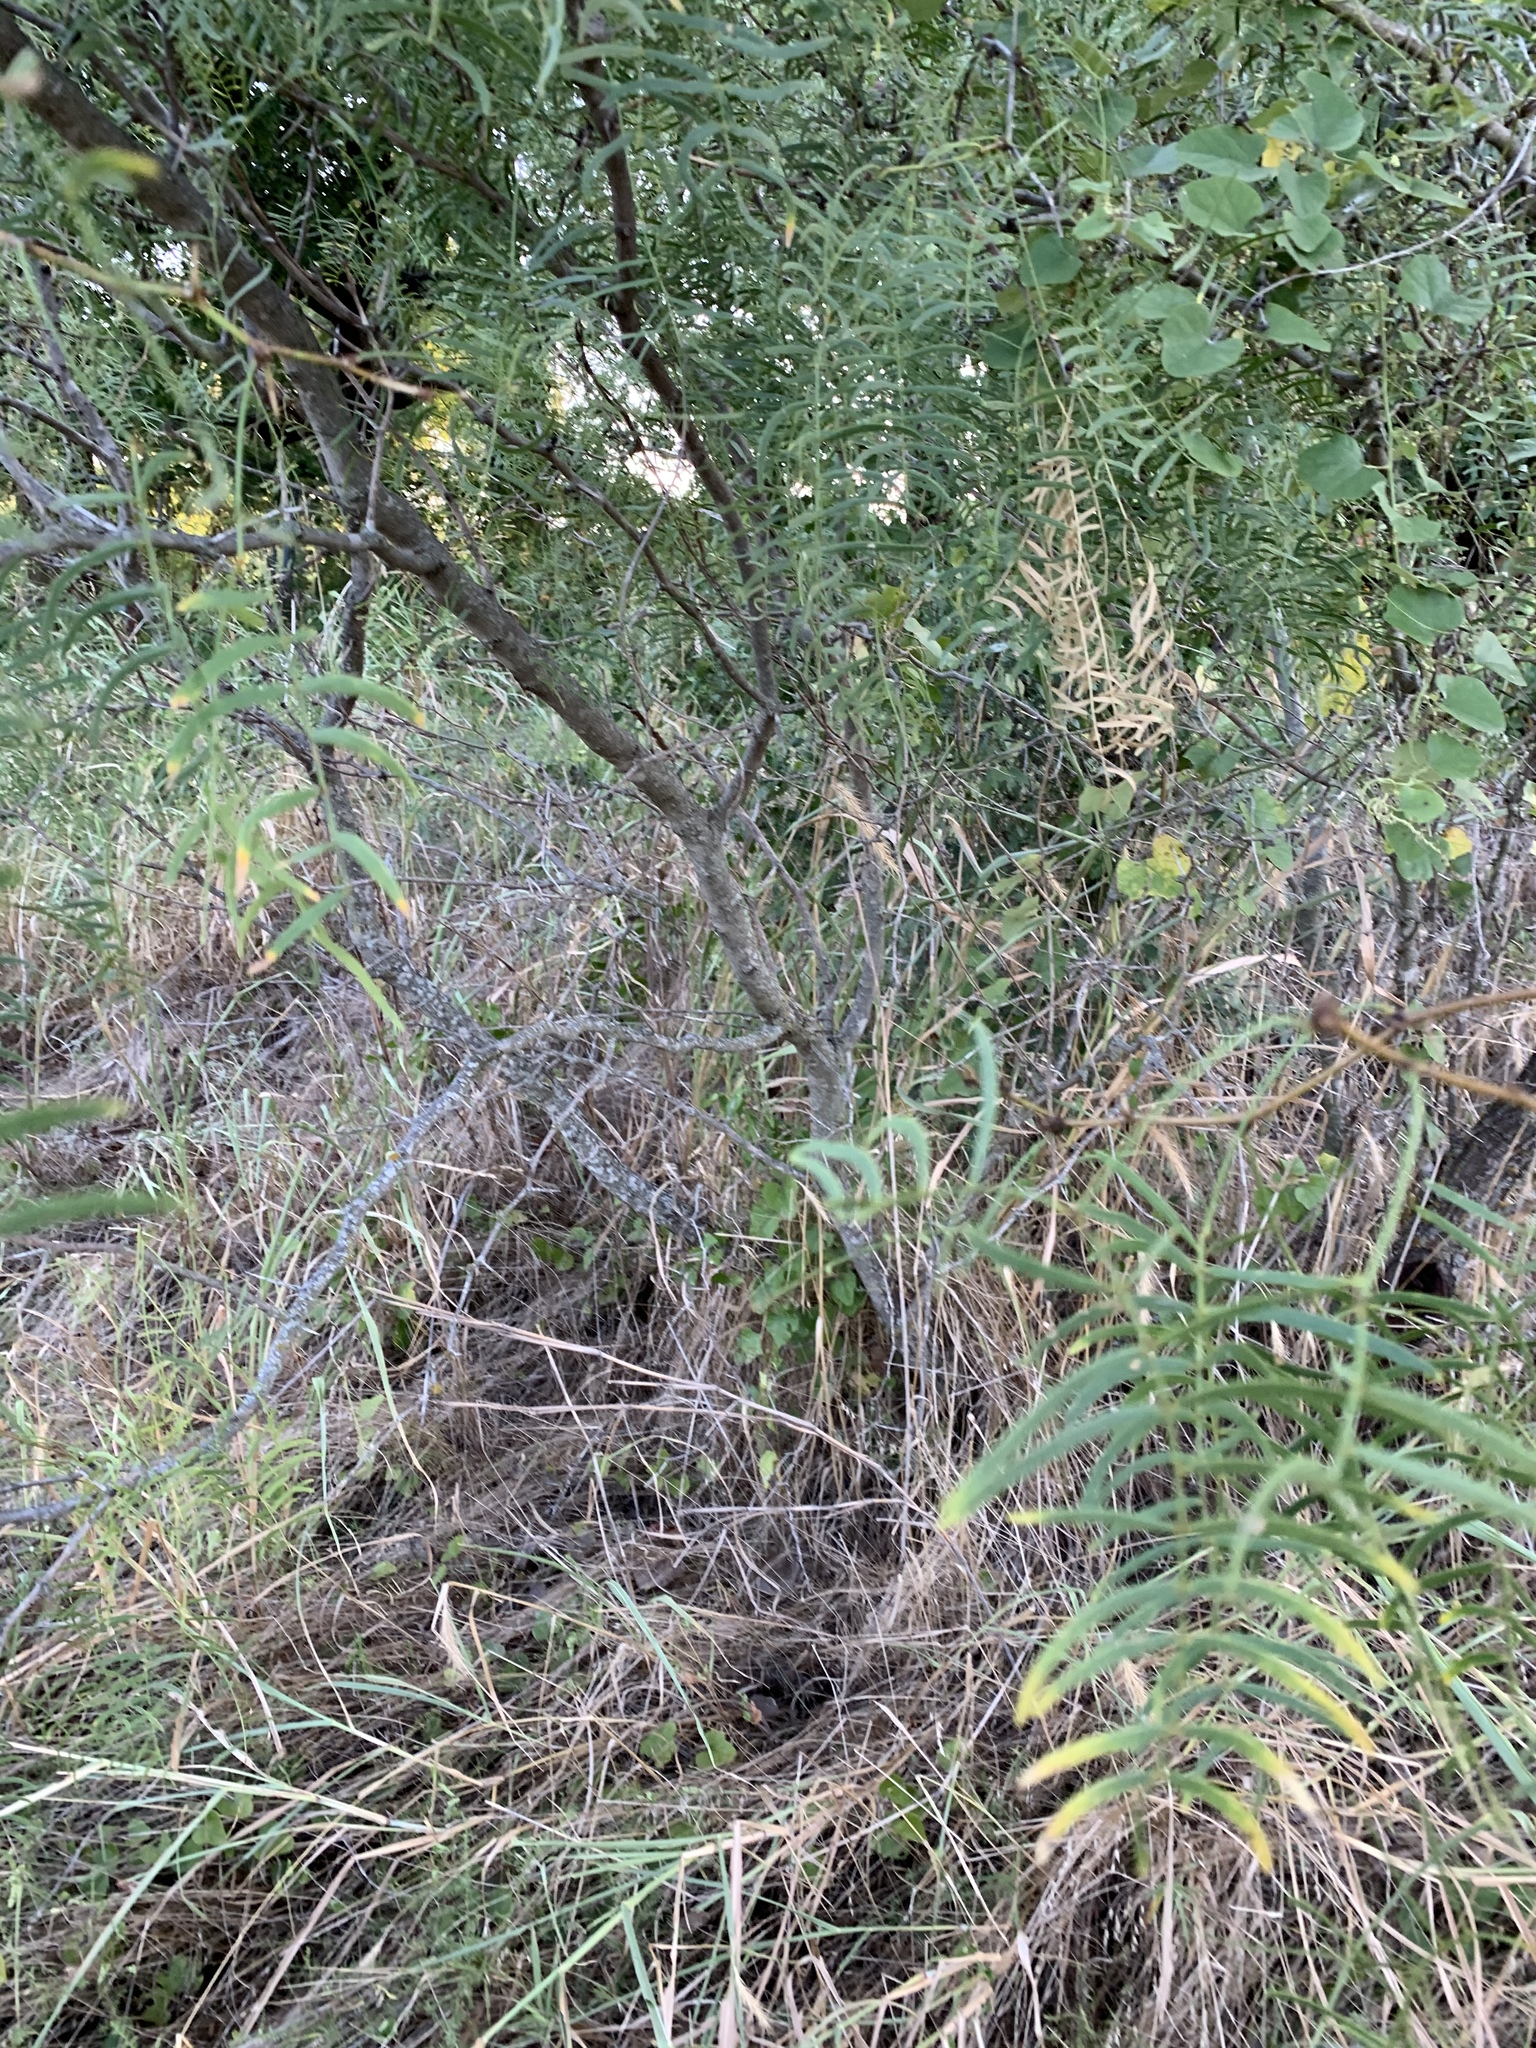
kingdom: Plantae
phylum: Tracheophyta
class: Magnoliopsida
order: Fabales
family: Fabaceae
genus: Prosopis
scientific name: Prosopis glandulosa
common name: Honey mesquite
